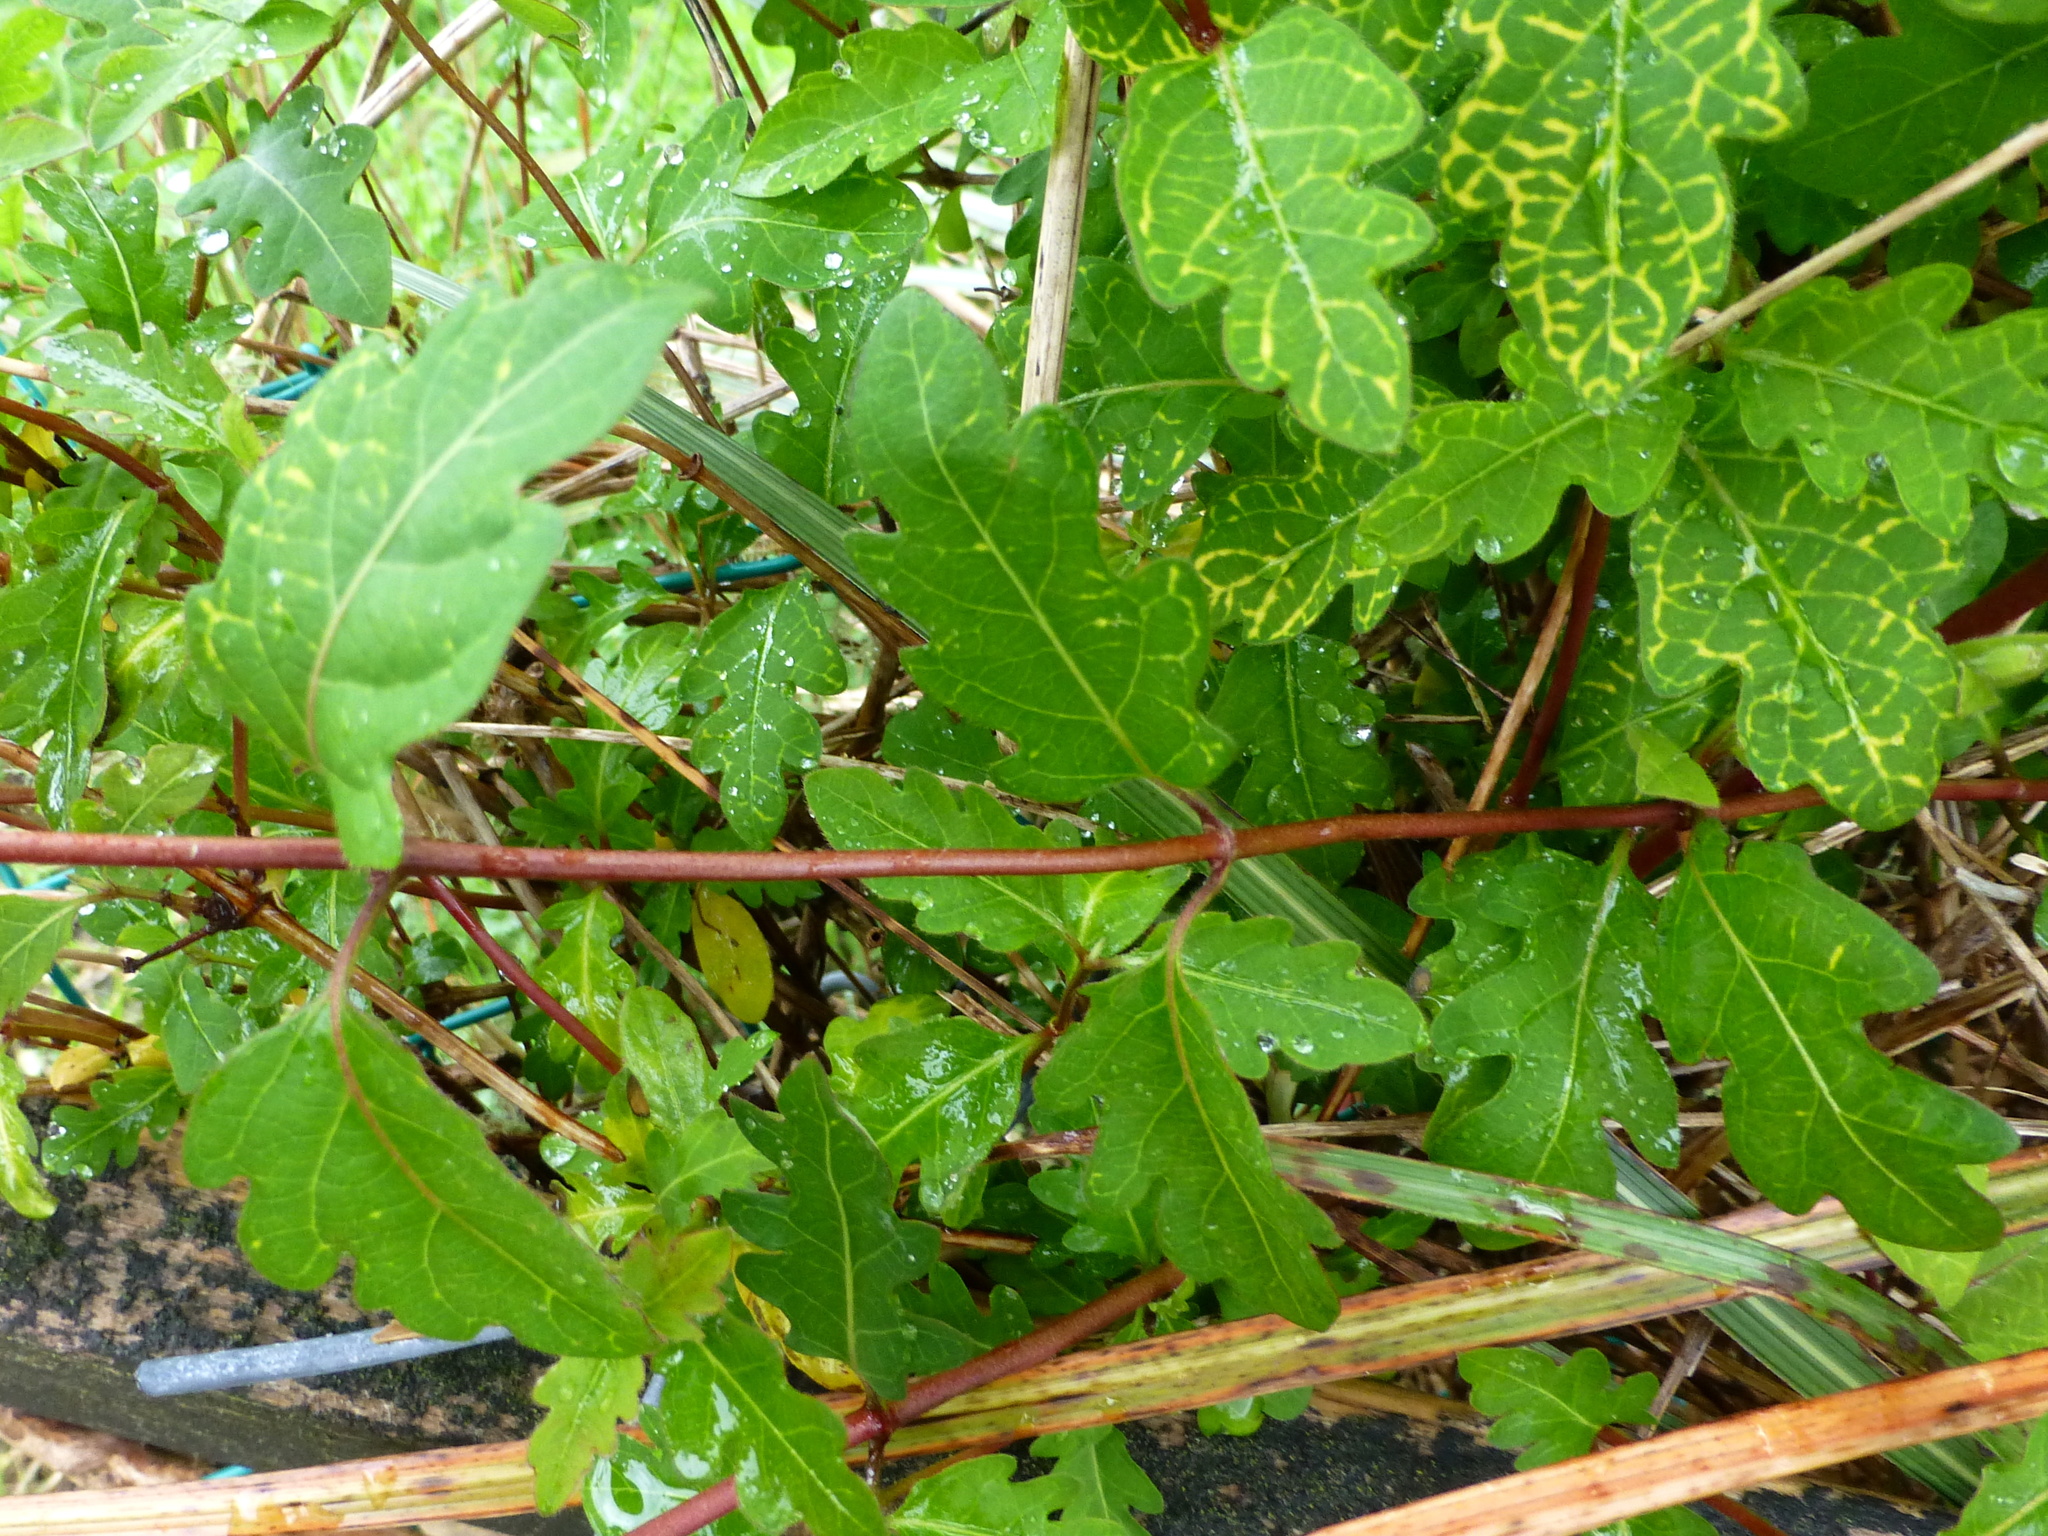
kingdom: Plantae
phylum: Tracheophyta
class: Magnoliopsida
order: Dipsacales
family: Caprifoliaceae
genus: Lonicera
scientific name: Lonicera japonica
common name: Japanese honeysuckle
